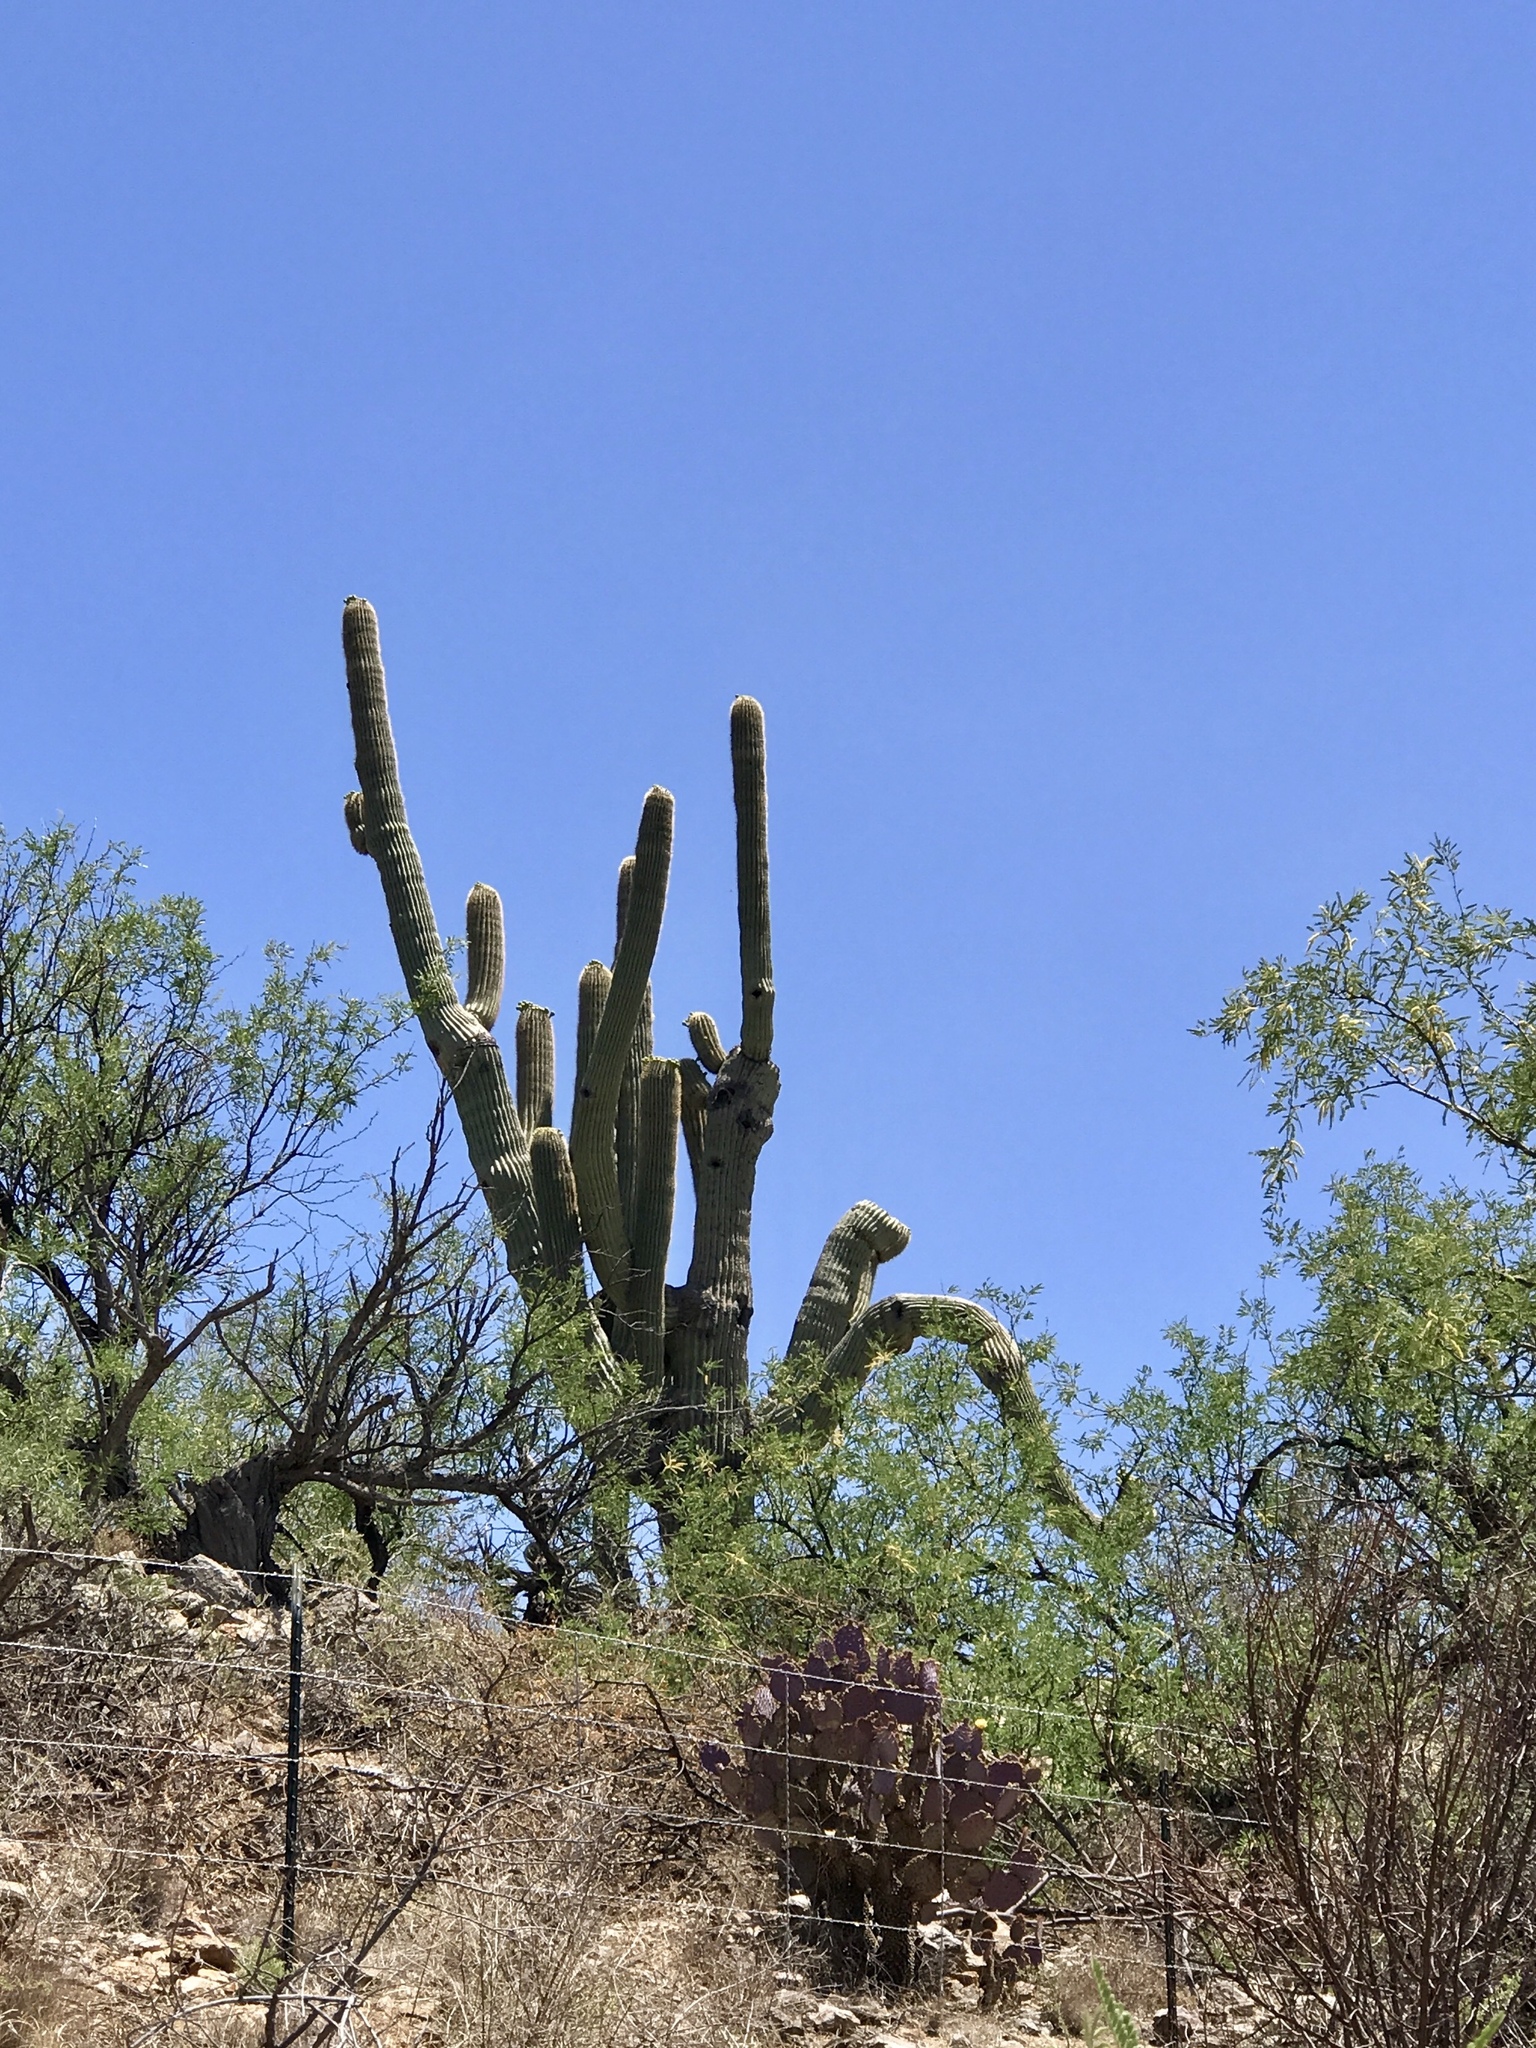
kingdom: Plantae
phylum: Tracheophyta
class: Magnoliopsida
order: Caryophyllales
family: Cactaceae
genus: Carnegiea
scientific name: Carnegiea gigantea
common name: Saguaro
